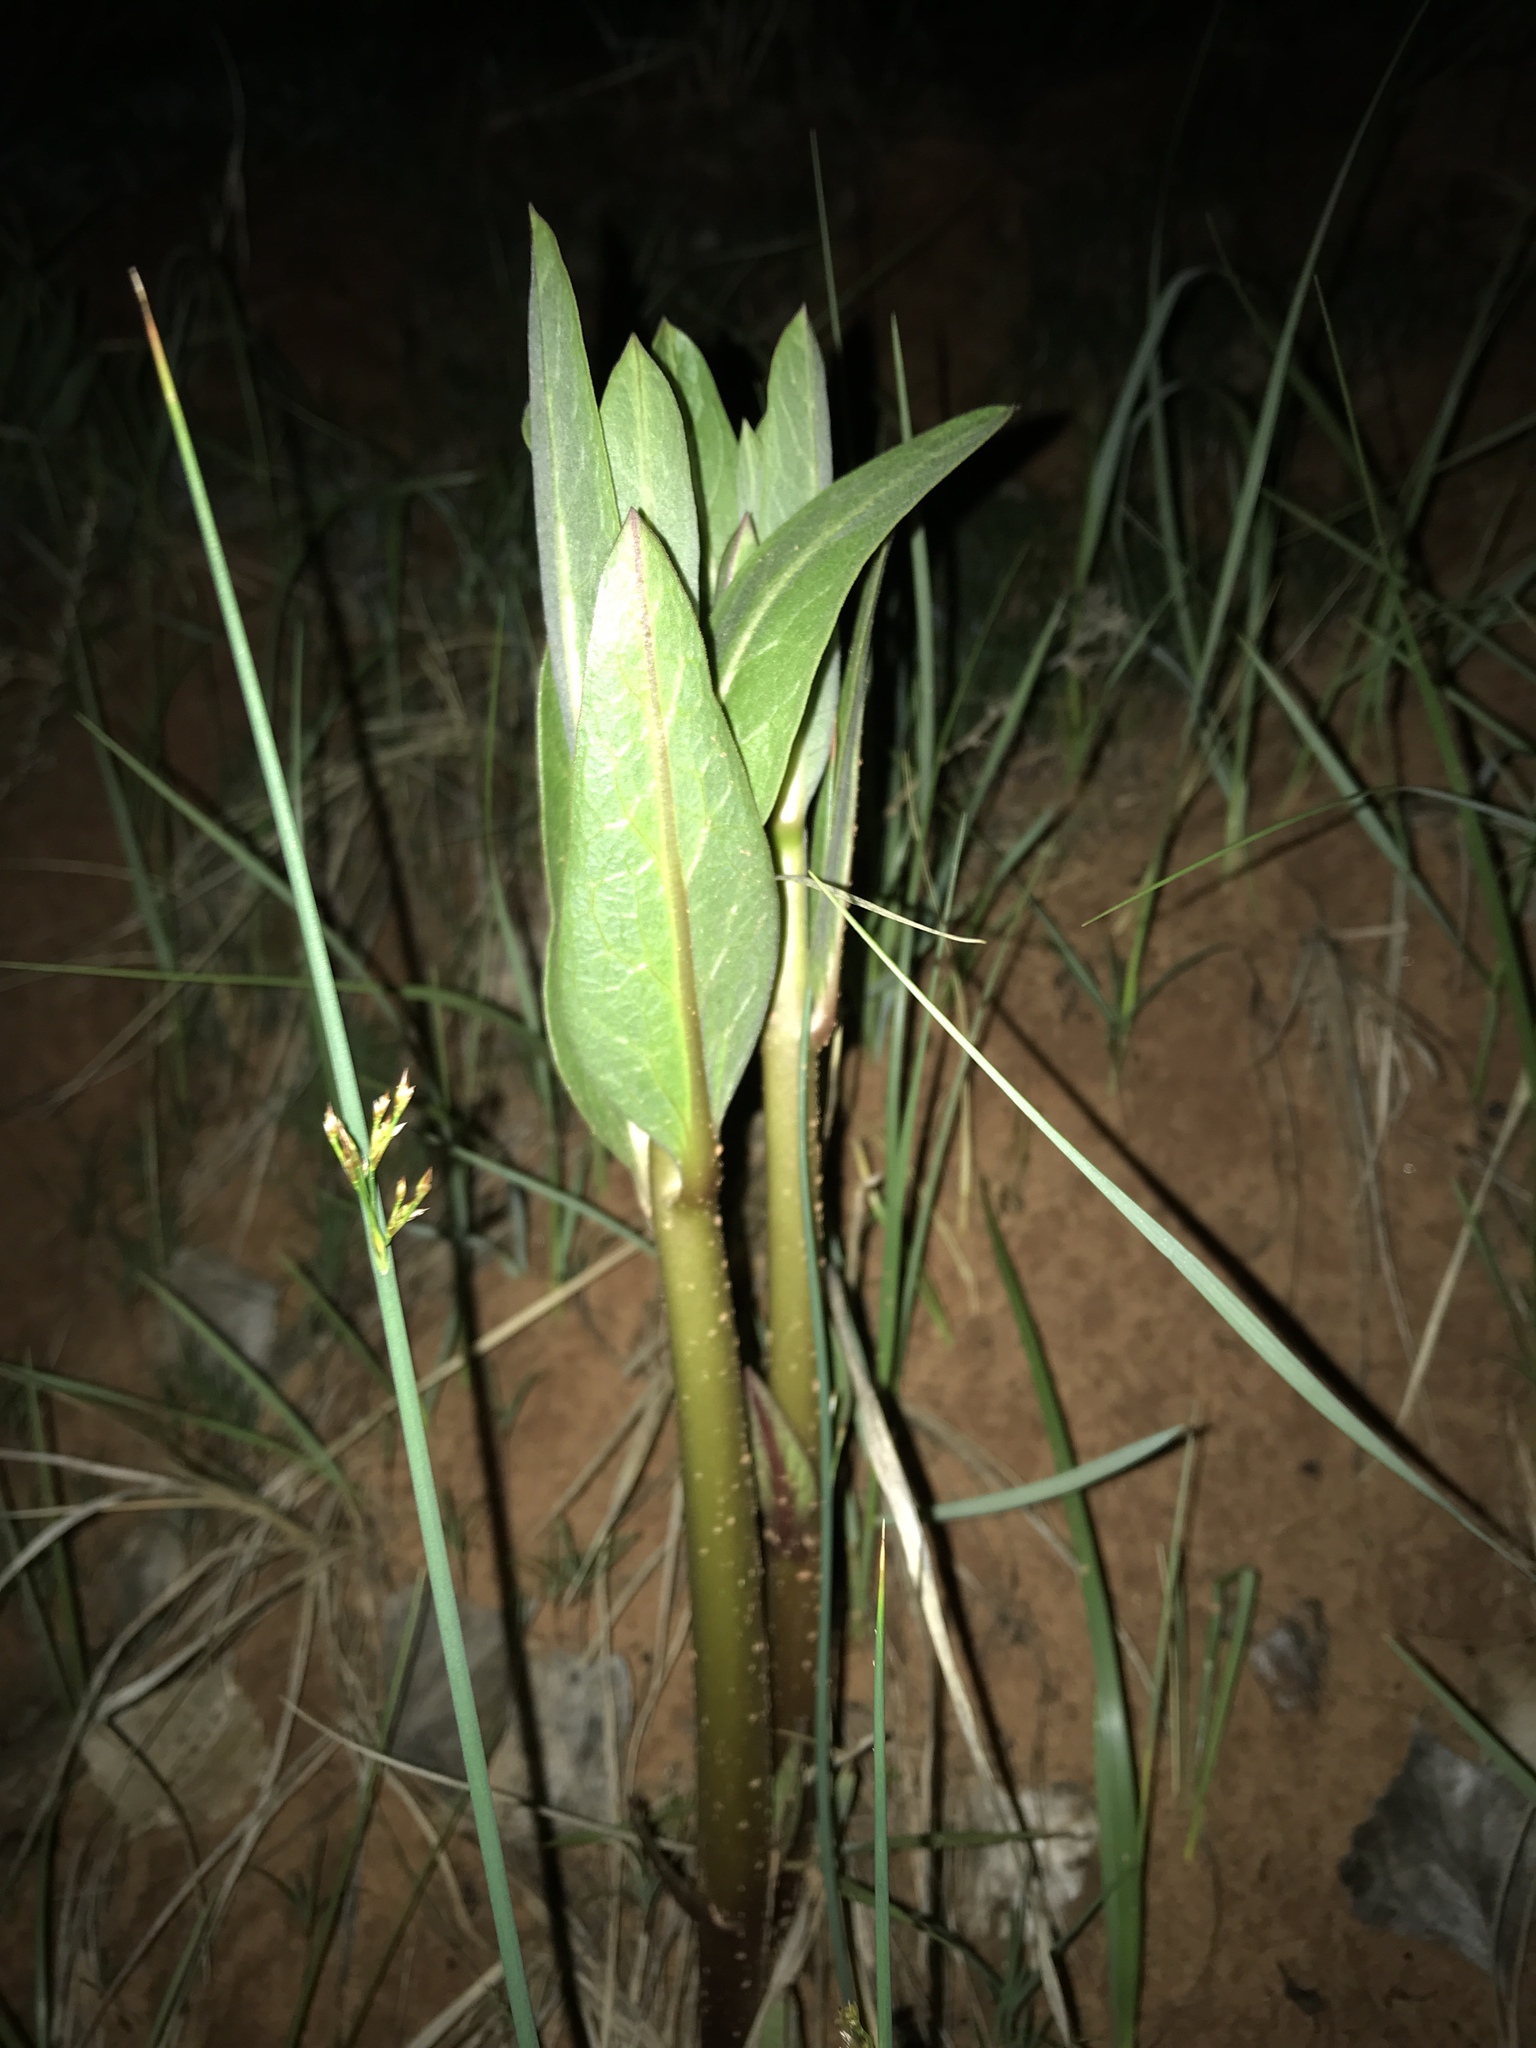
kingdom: Plantae
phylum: Tracheophyta
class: Magnoliopsida
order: Gentianales
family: Apocynaceae
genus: Asclepias
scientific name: Asclepias speciosa
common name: Showy milkweed
